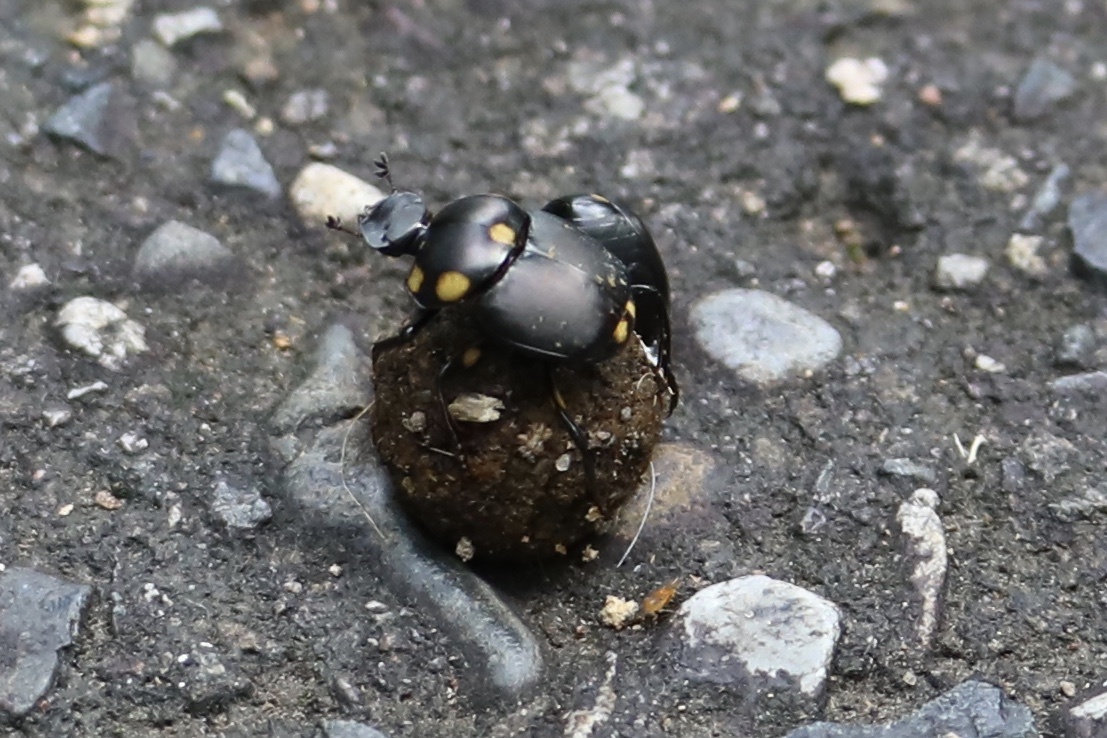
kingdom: Animalia
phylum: Arthropoda
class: Insecta
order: Coleoptera
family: Scarabaeidae
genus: Canthon
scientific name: Canthon septemmaculatus
